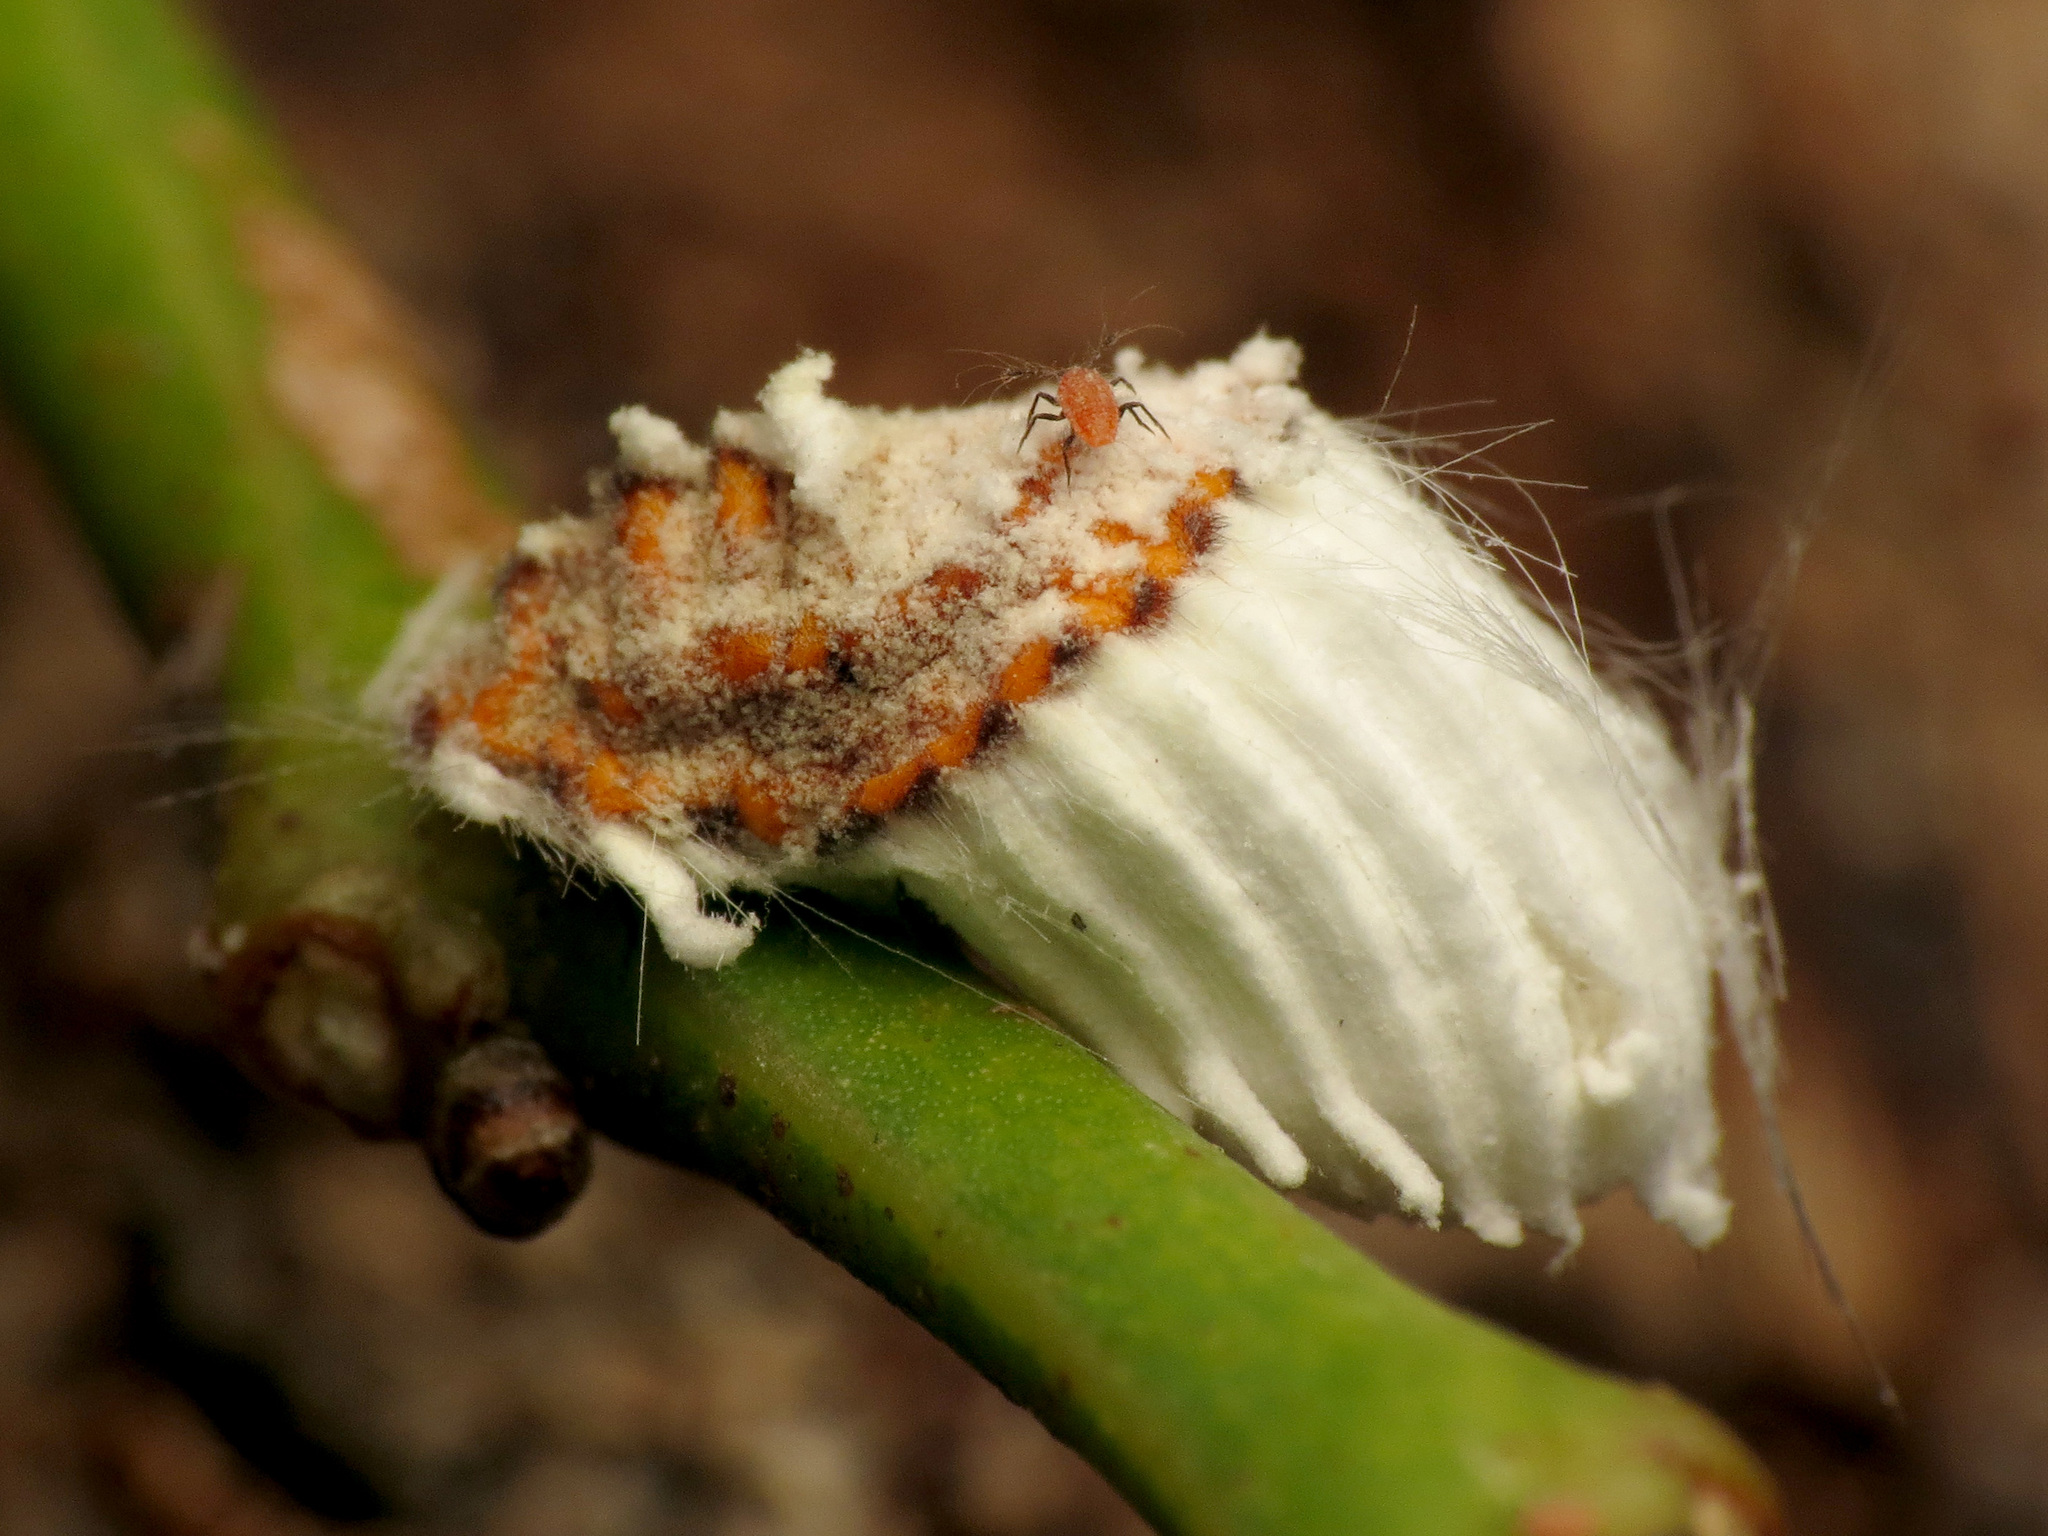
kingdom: Animalia
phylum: Arthropoda
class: Insecta
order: Hemiptera
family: Margarodidae
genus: Icerya
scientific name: Icerya purchasi
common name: Cottony cushion scale
